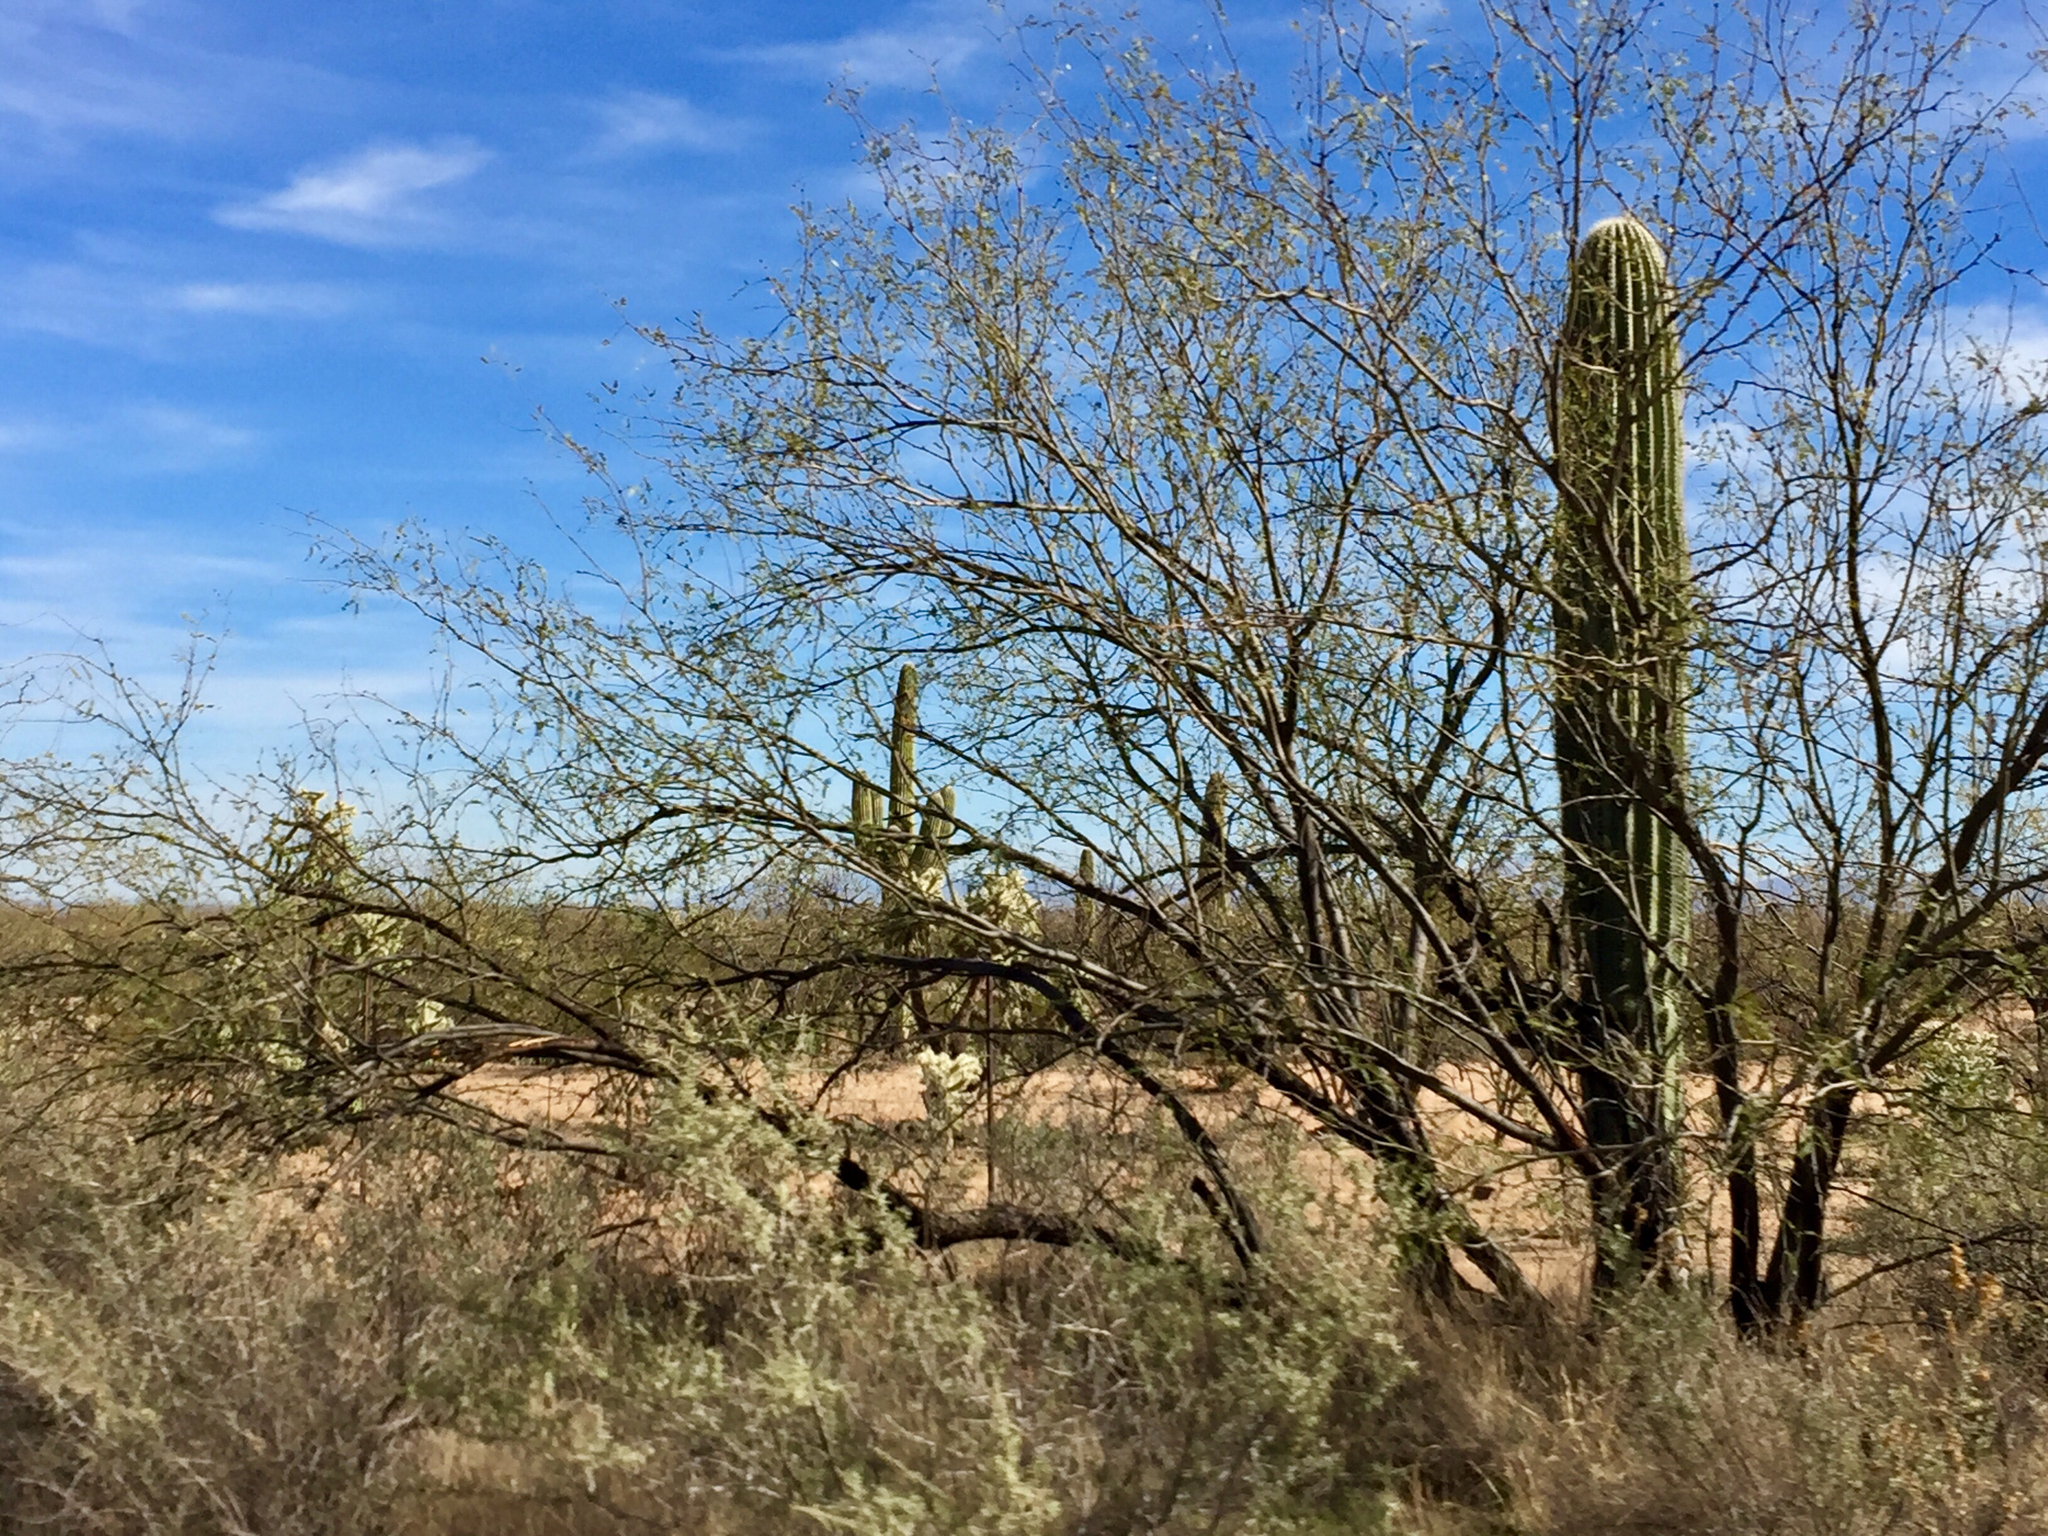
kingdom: Plantae
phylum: Tracheophyta
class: Magnoliopsida
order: Fabales
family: Fabaceae
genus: Prosopis
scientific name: Prosopis glandulosa
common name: Honey mesquite
